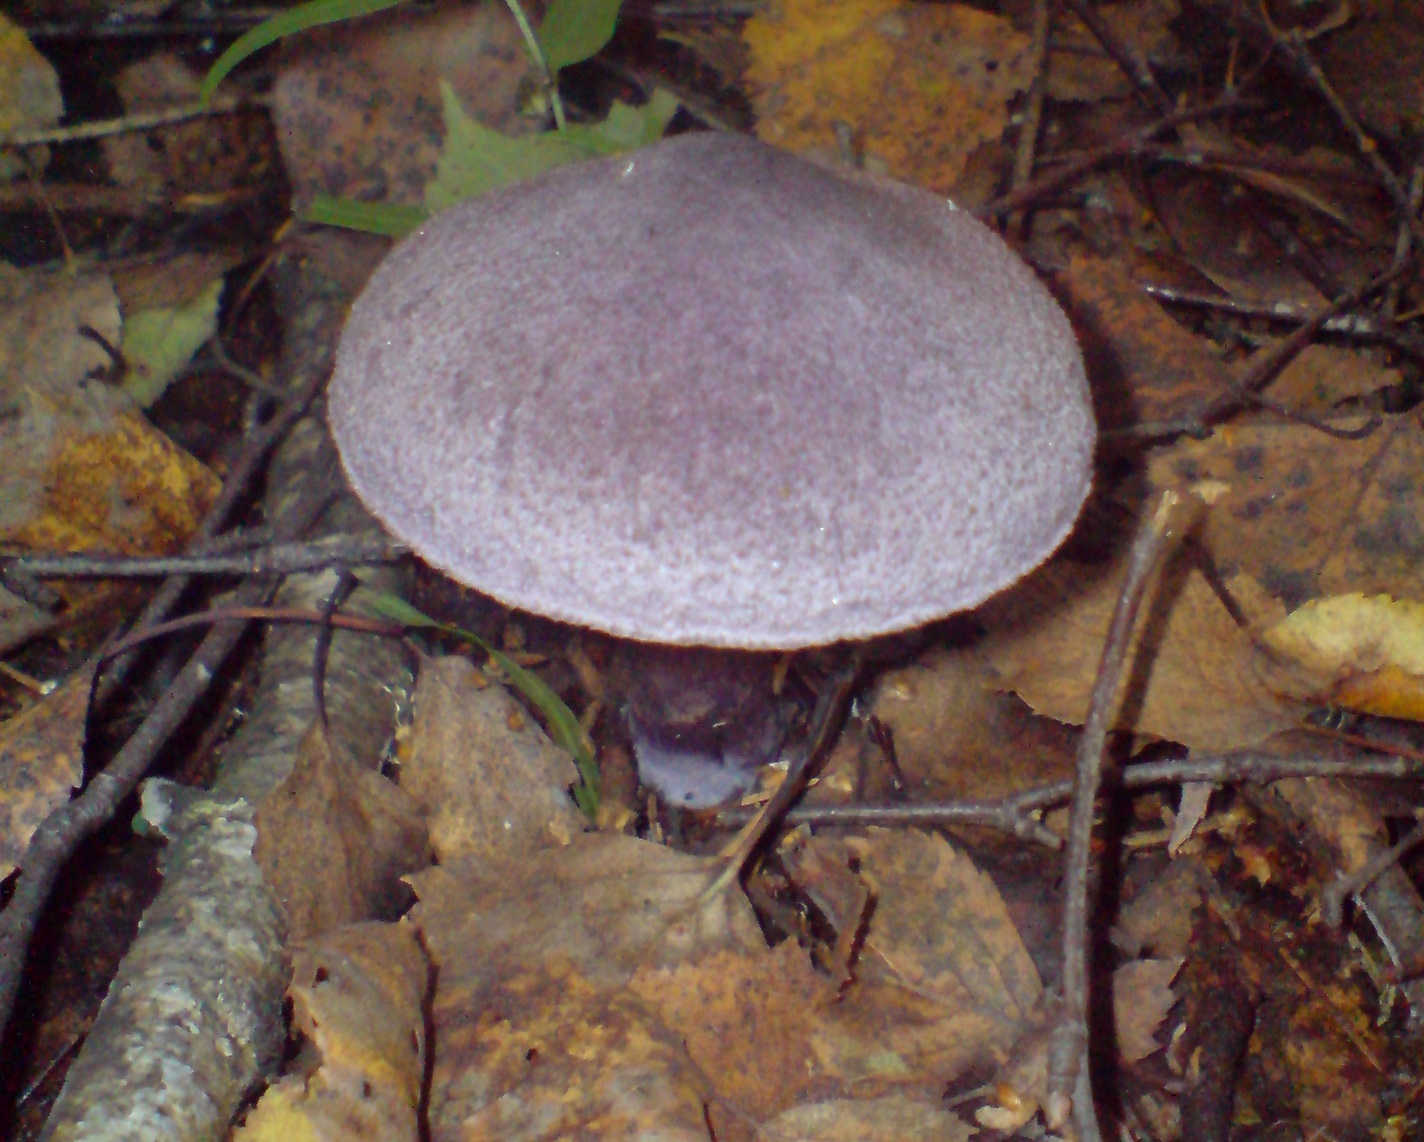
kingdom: Fungi
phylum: Basidiomycota
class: Agaricomycetes
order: Agaricales
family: Cortinariaceae
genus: Cortinarius
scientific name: Cortinarius violaceus
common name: Violet webcap
